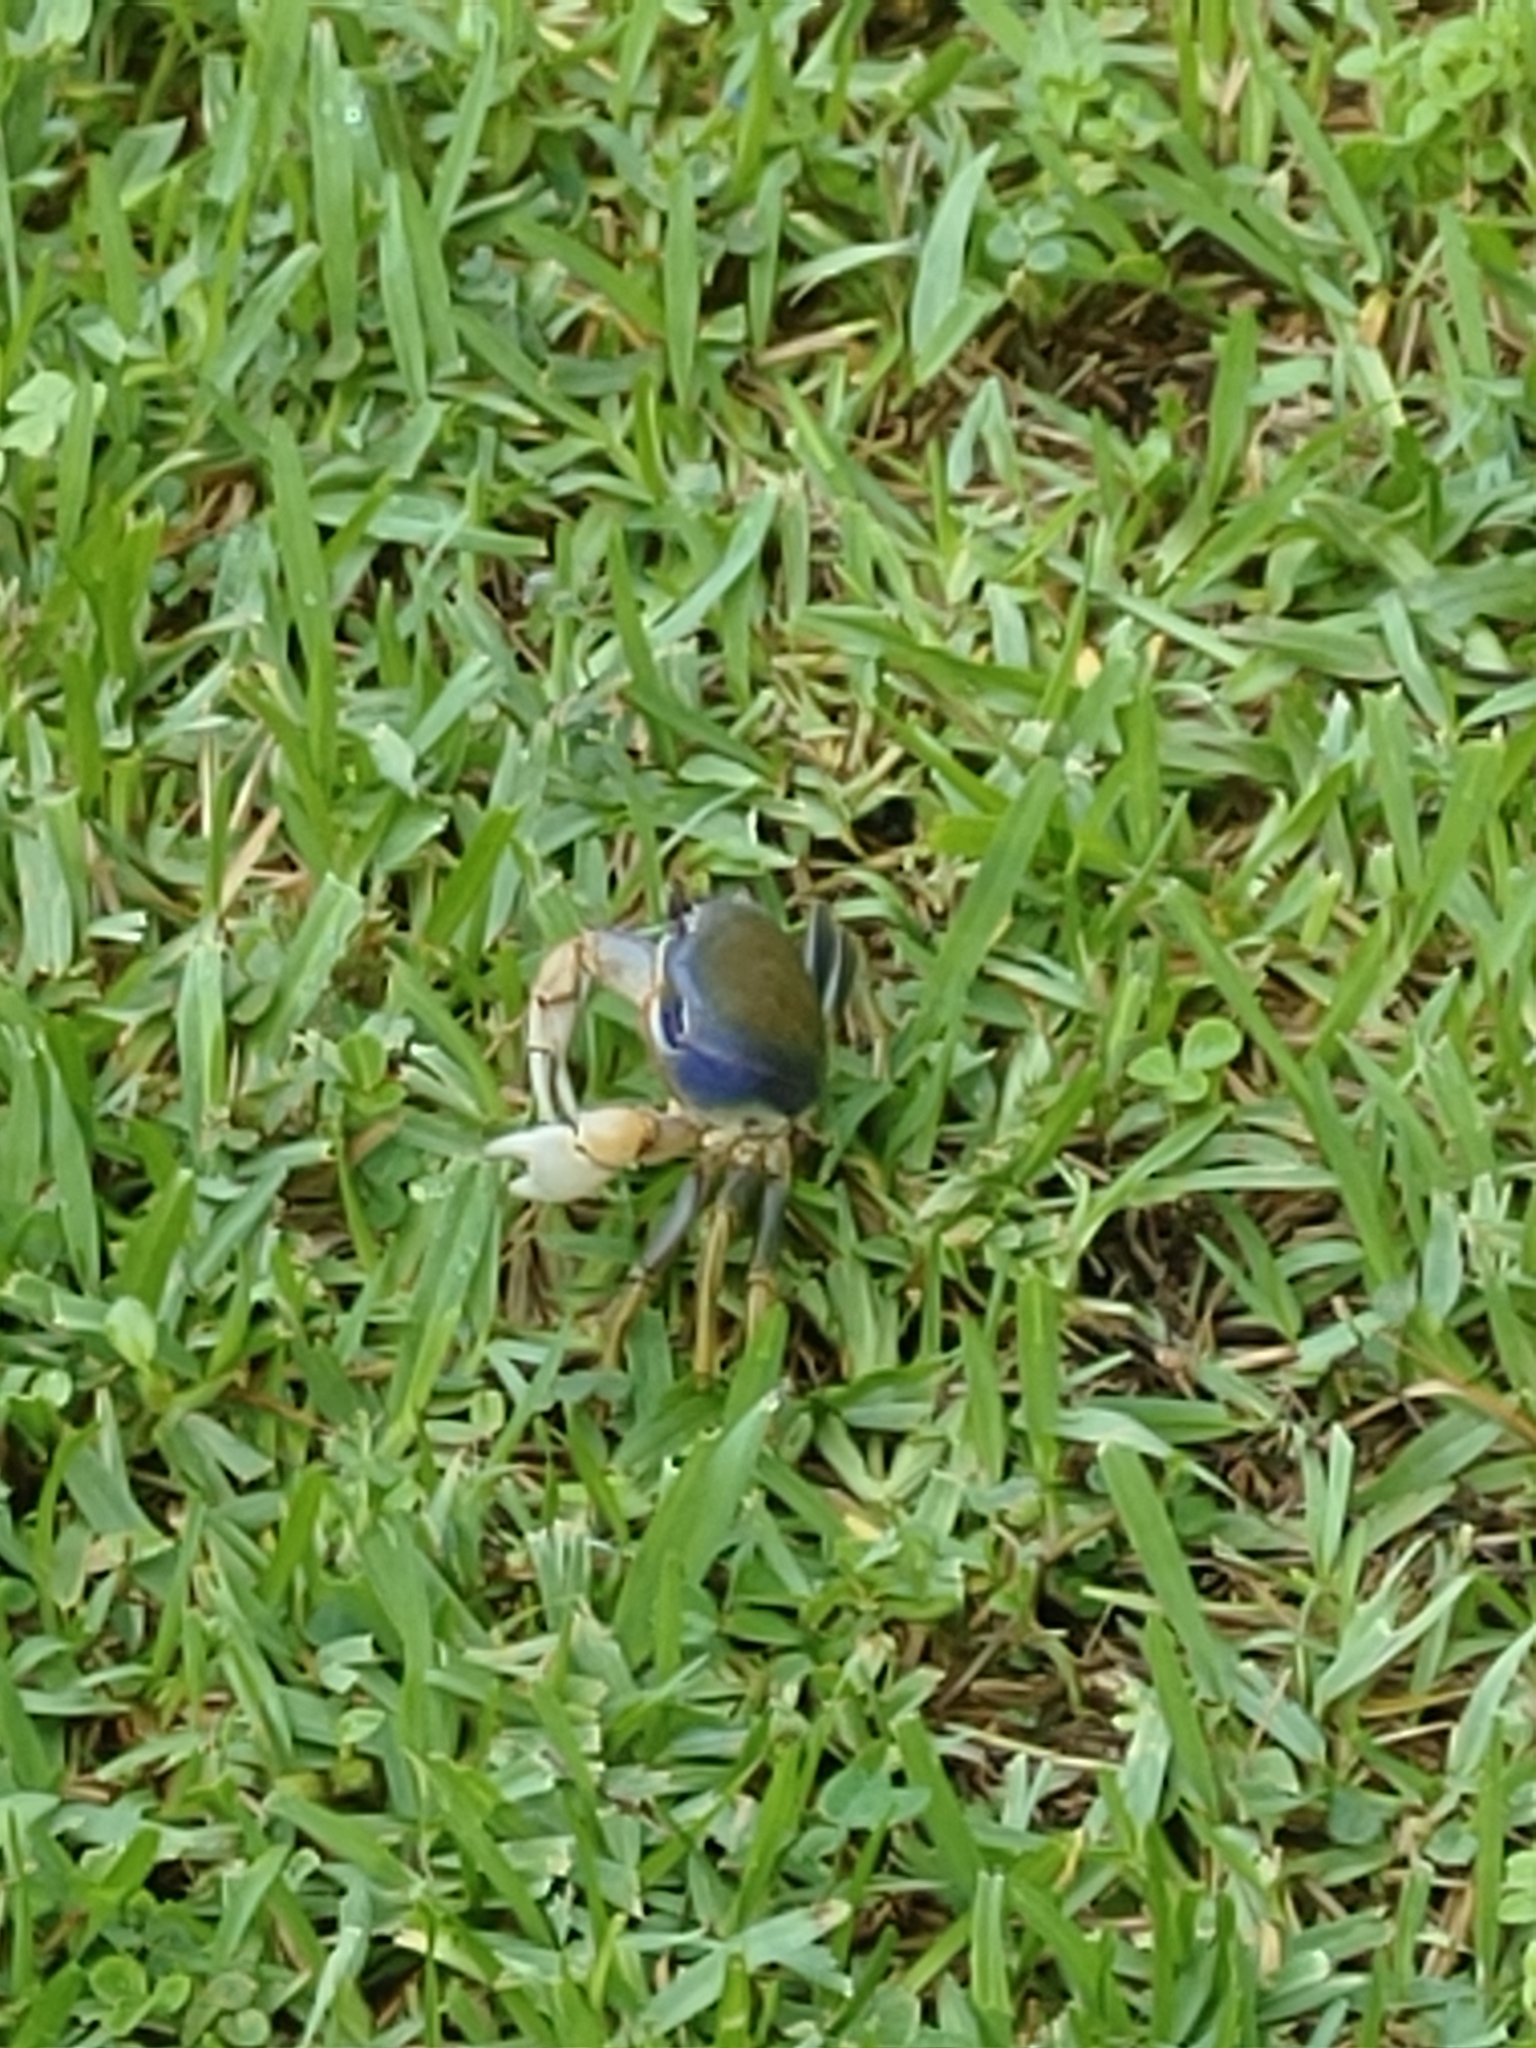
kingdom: Animalia
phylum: Arthropoda
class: Malacostraca
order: Decapoda
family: Gecarcinidae
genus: Cardisoma
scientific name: Cardisoma guanhumi
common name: Great land crab
